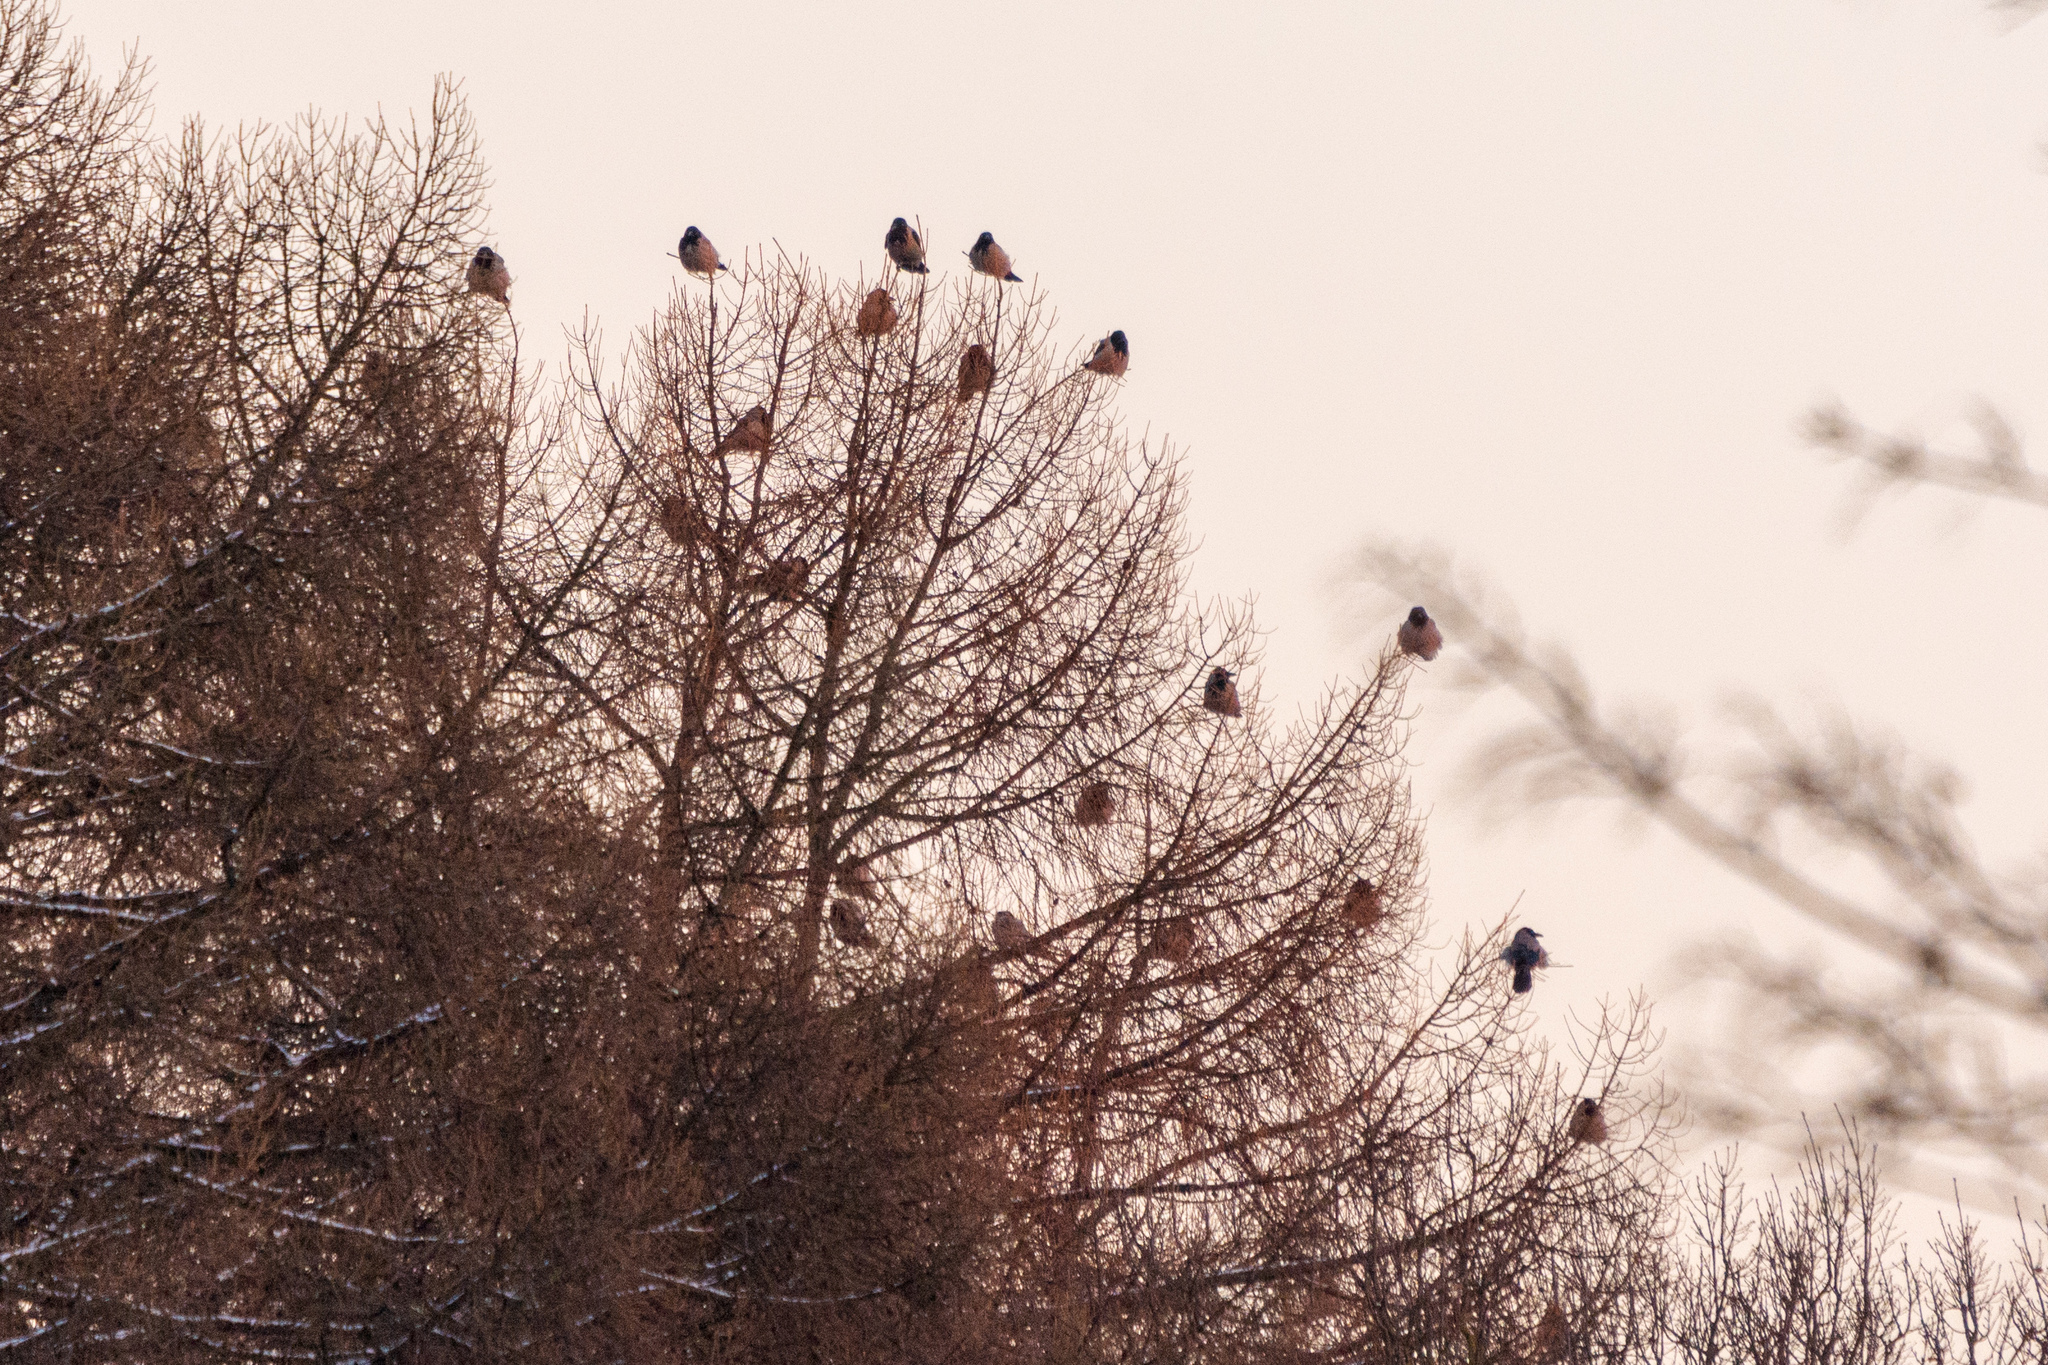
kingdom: Animalia
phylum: Chordata
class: Aves
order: Passeriformes
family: Corvidae
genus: Corvus
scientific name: Corvus cornix
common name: Hooded crow
